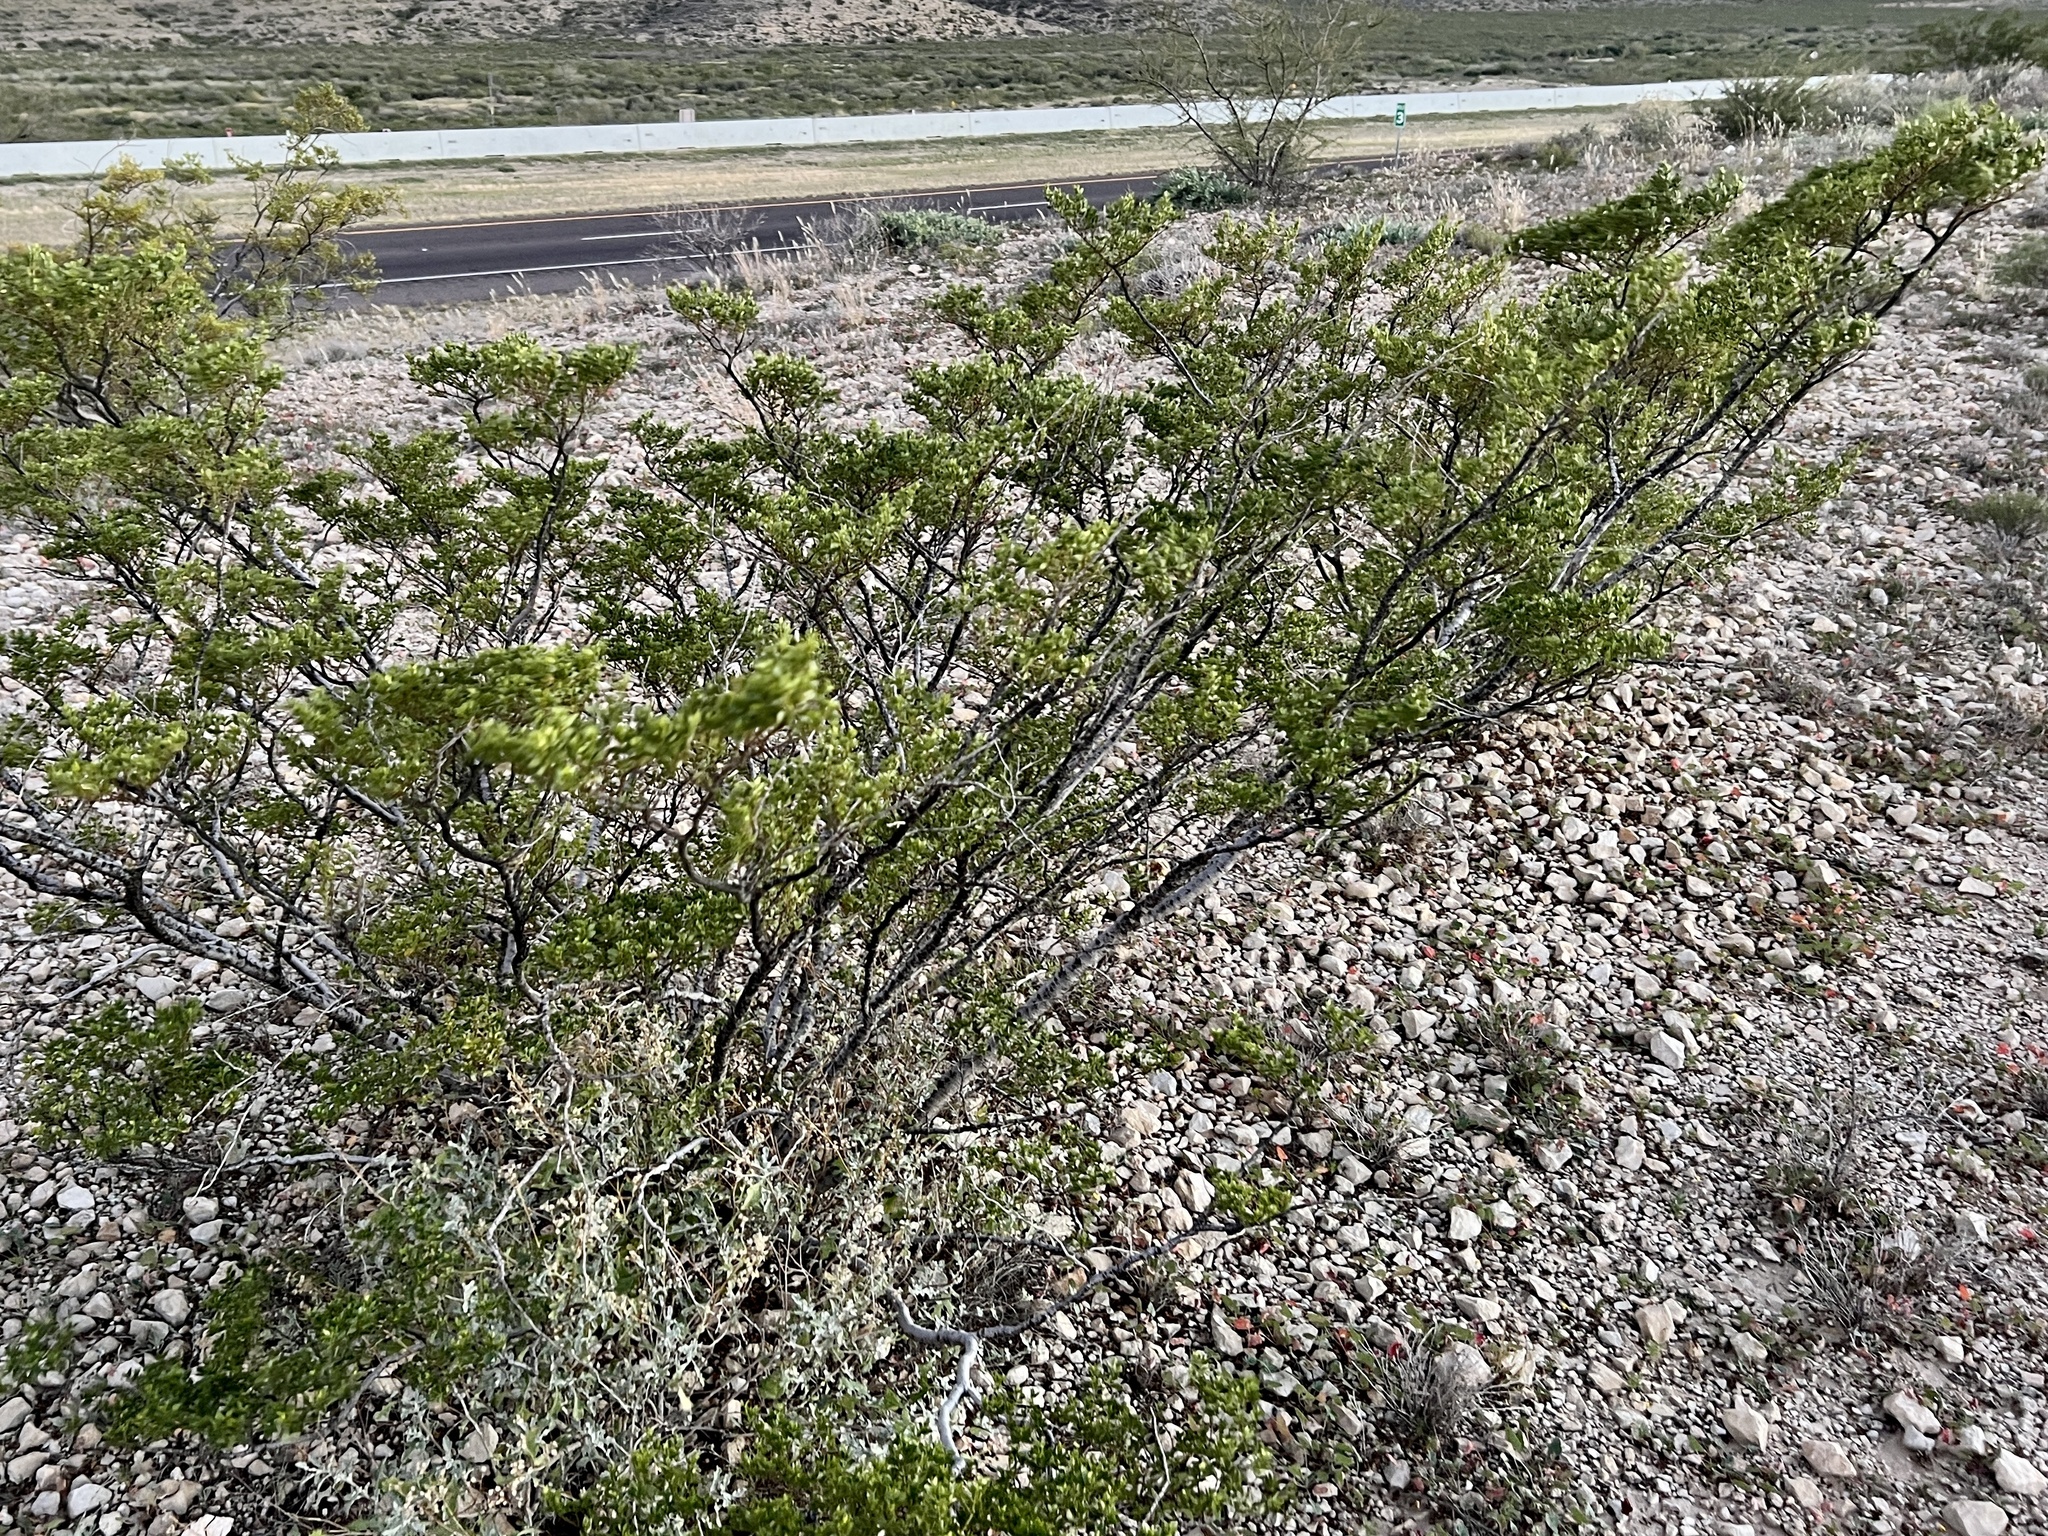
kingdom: Plantae
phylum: Tracheophyta
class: Magnoliopsida
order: Zygophyllales
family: Zygophyllaceae
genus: Larrea
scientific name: Larrea tridentata
